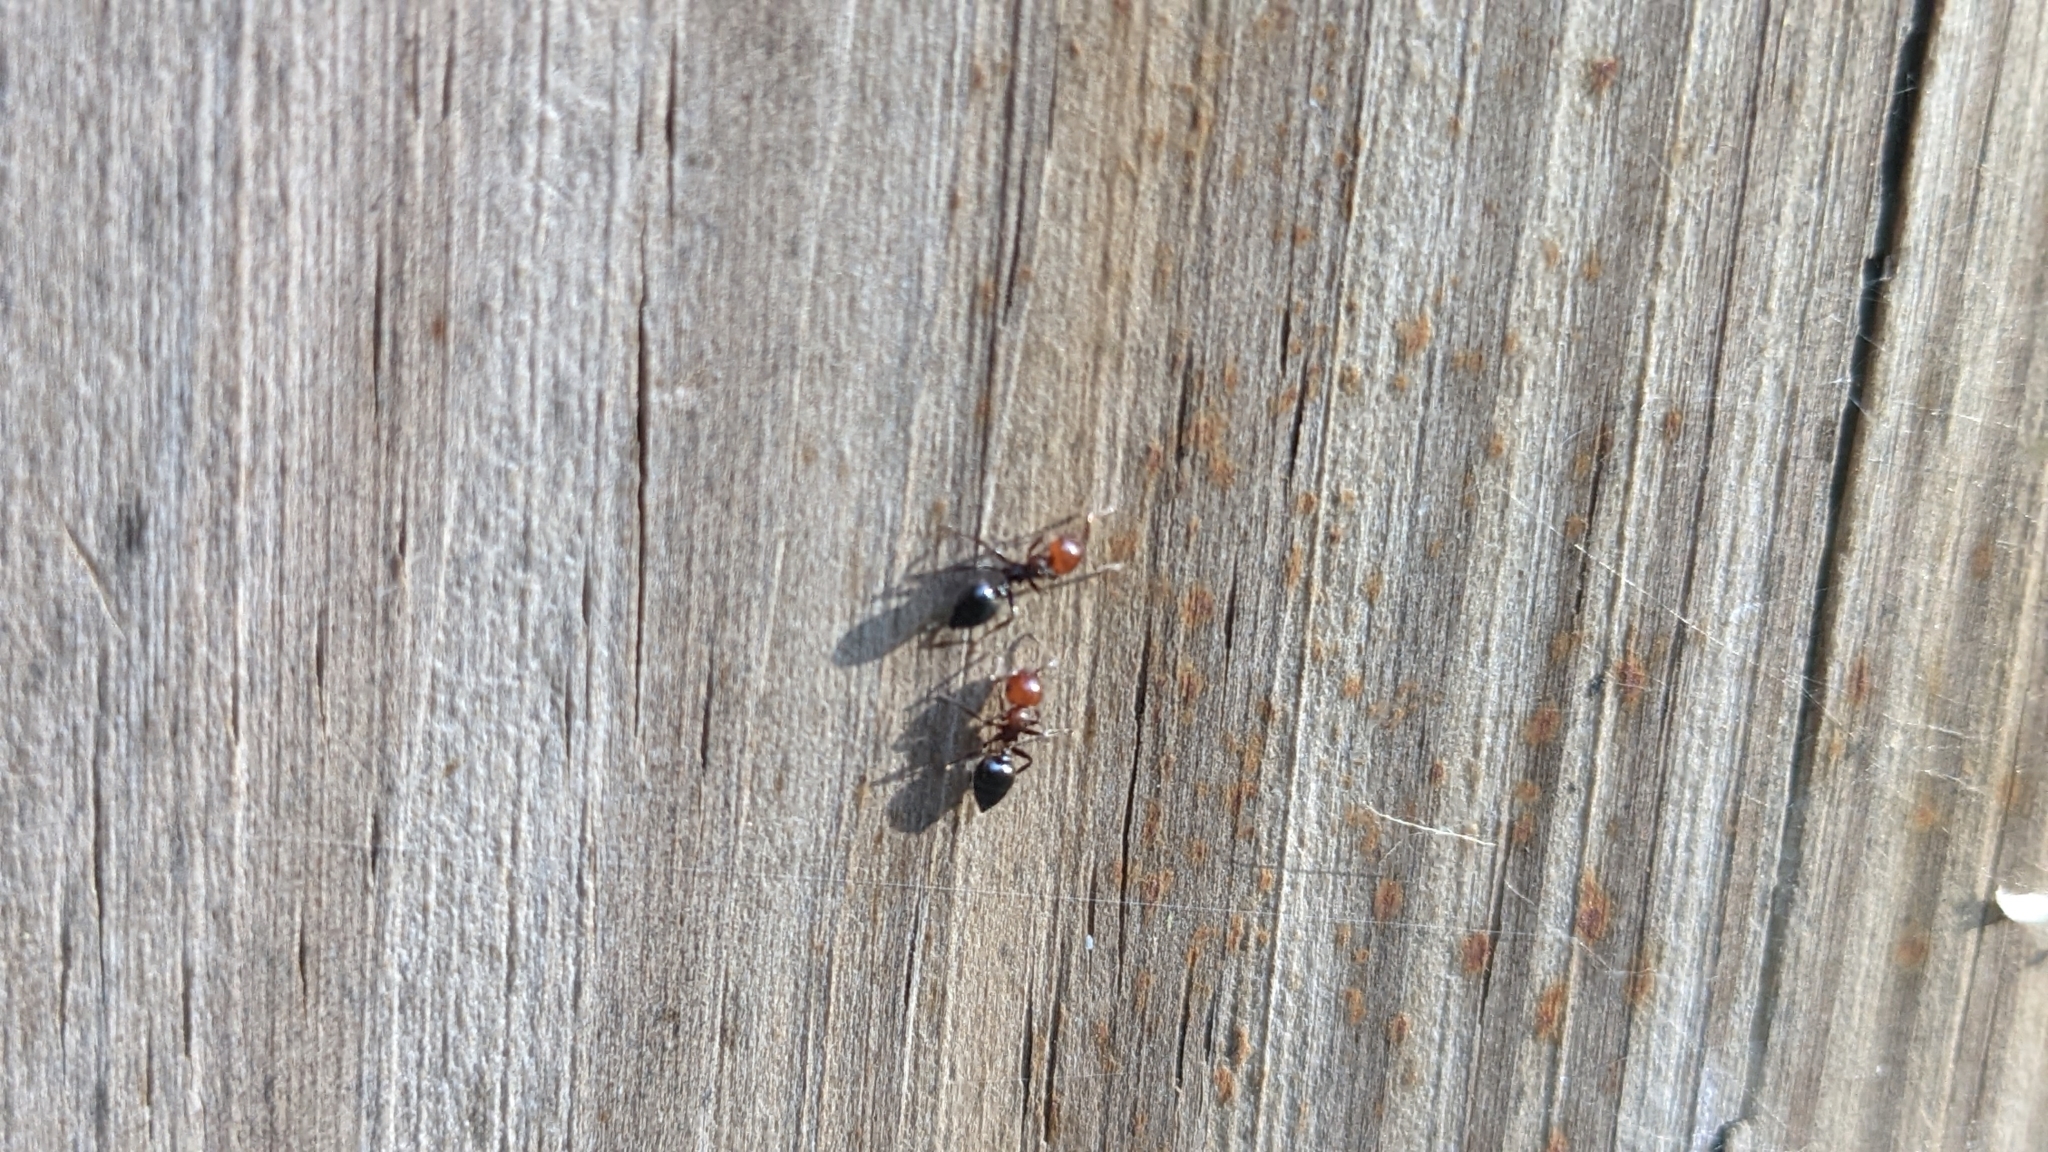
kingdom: Animalia
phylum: Arthropoda
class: Insecta
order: Hymenoptera
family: Formicidae
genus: Crematogaster
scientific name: Crematogaster scutellaris
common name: Fourmi du liège
